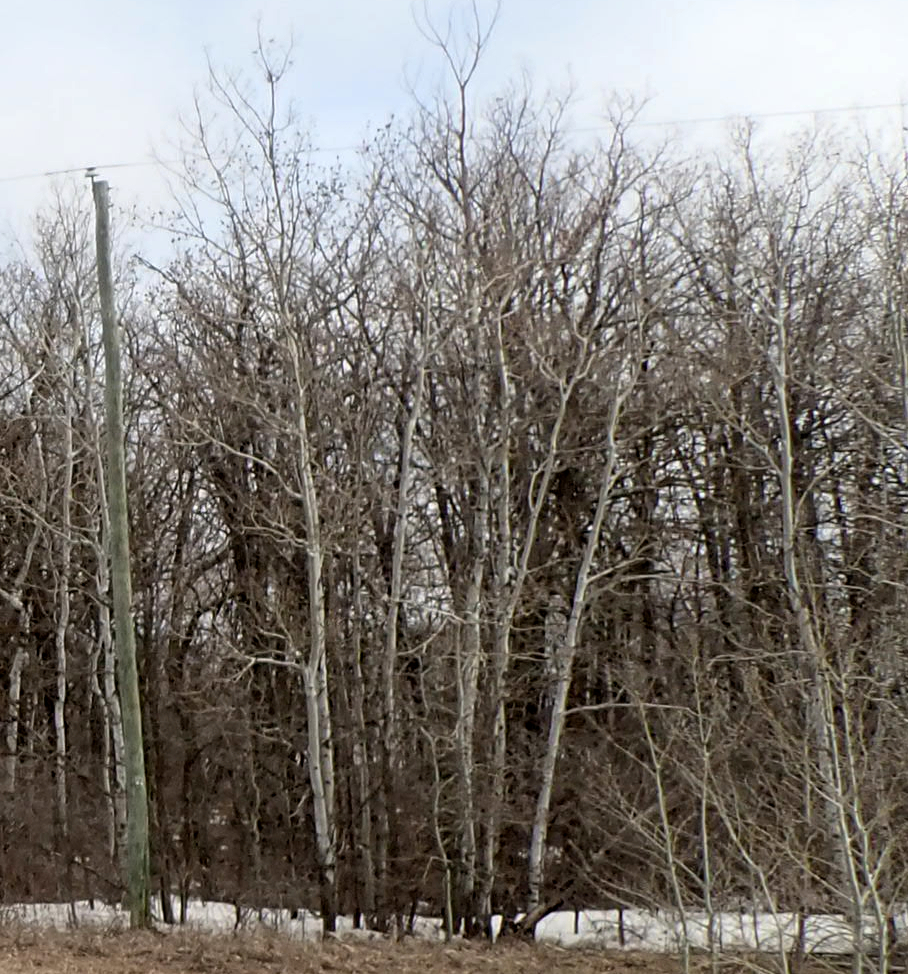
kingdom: Plantae
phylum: Tracheophyta
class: Magnoliopsida
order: Malpighiales
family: Salicaceae
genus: Populus
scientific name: Populus tremuloides
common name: Quaking aspen
